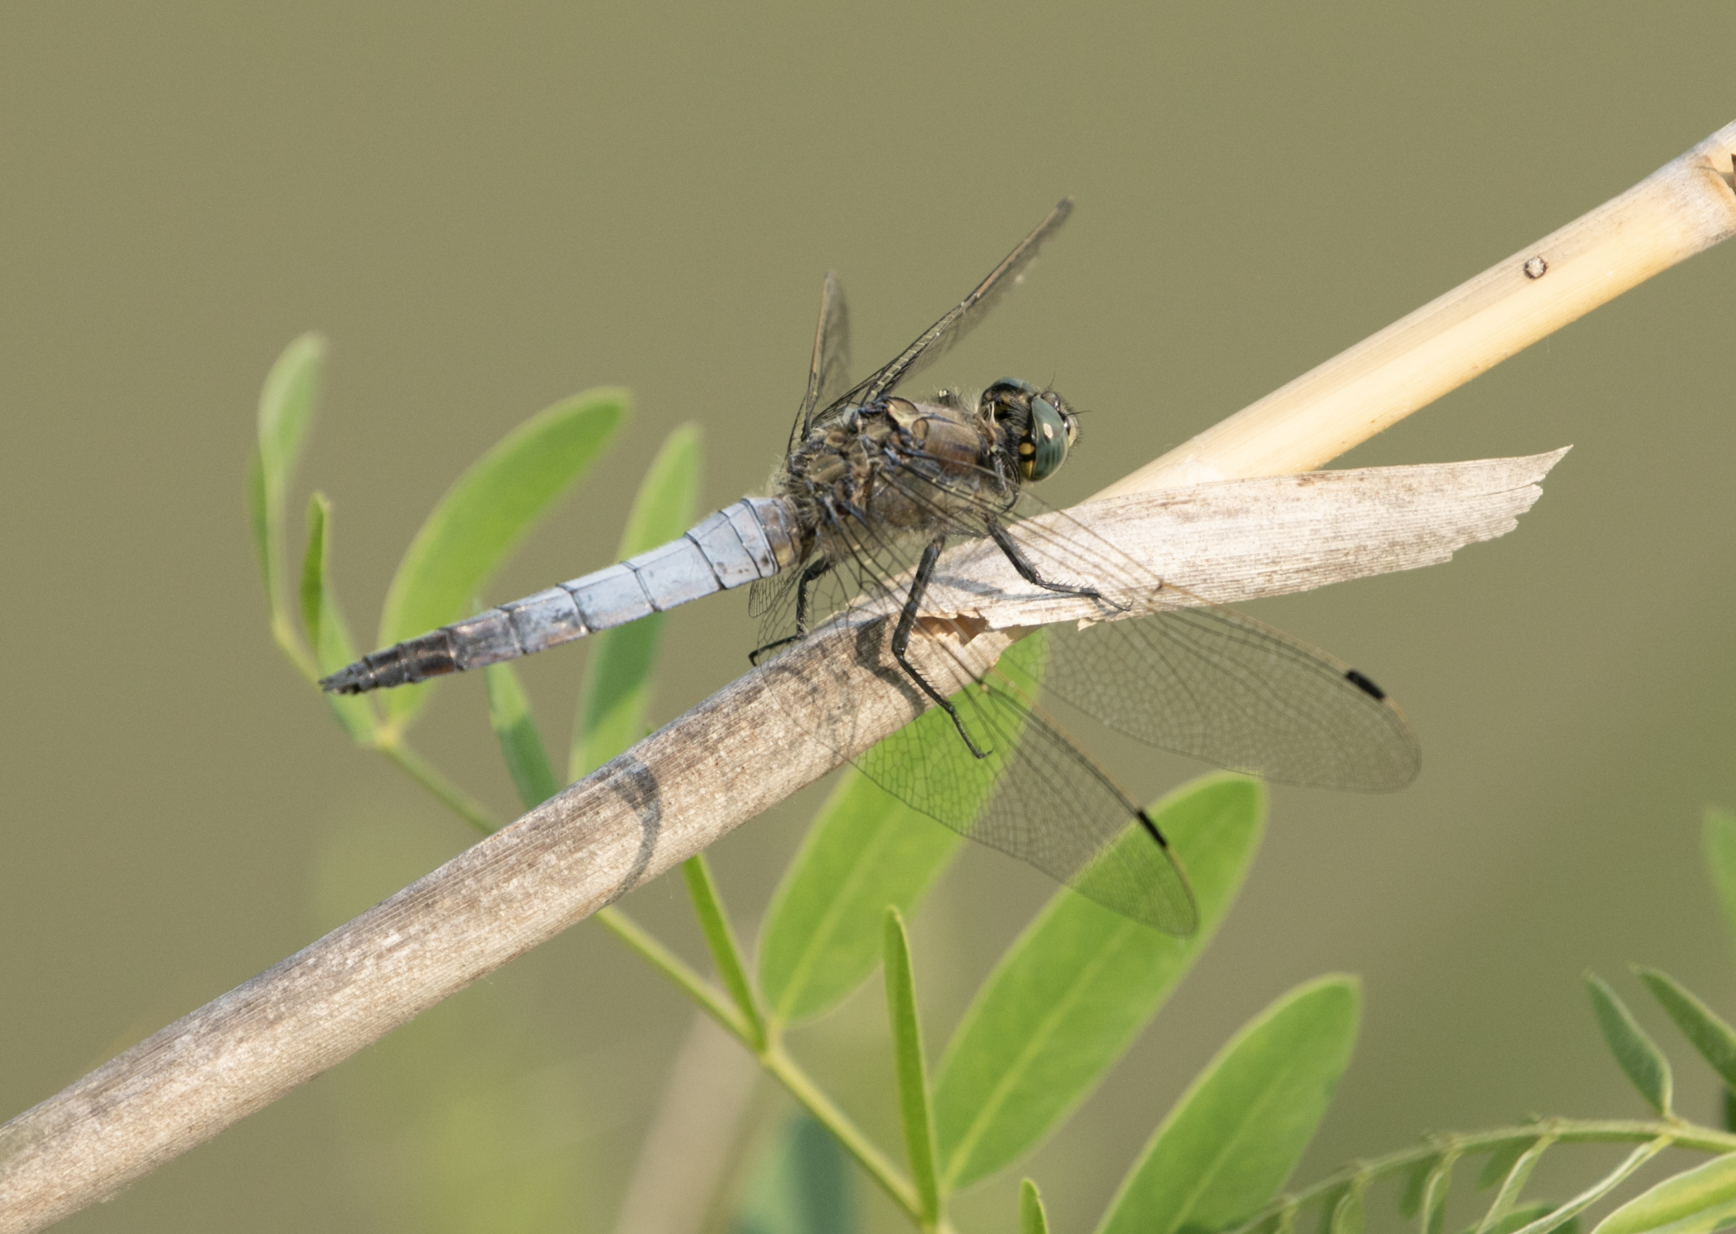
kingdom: Animalia
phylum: Arthropoda
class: Insecta
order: Odonata
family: Libellulidae
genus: Orthetrum
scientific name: Orthetrum cancellatum
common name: Black-tailed skimmer
